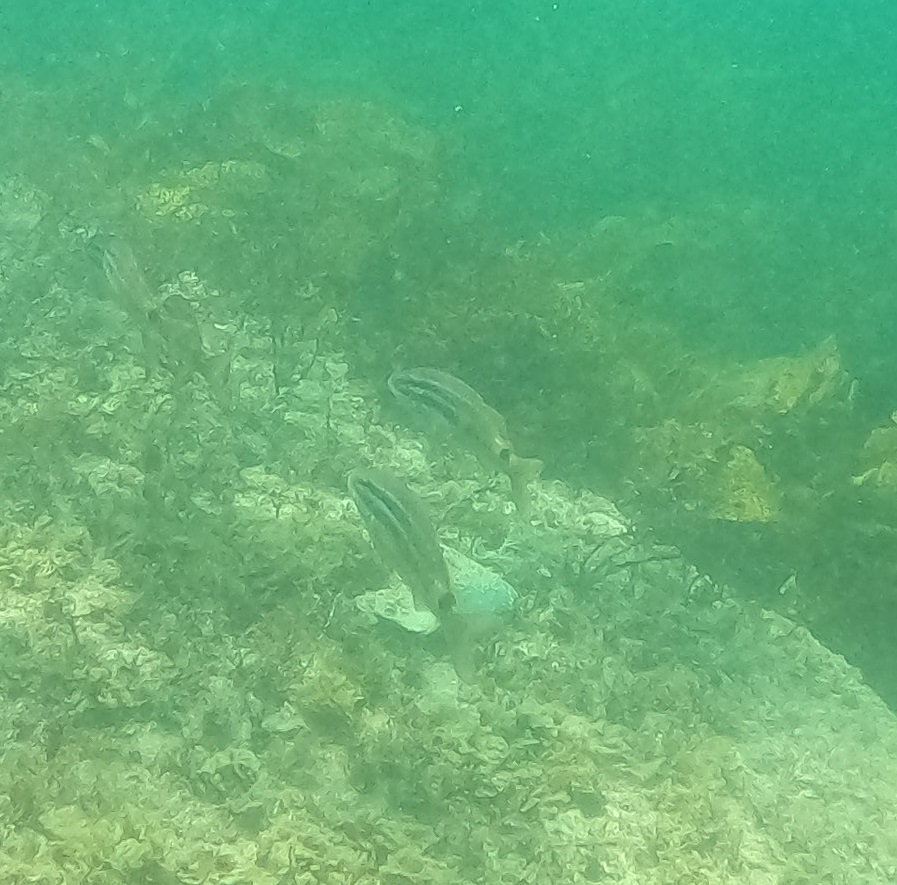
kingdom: Animalia
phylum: Chordata
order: Perciformes
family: Mullidae
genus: Parupeneus
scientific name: Parupeneus spilurus
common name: Blackspot goatfish
